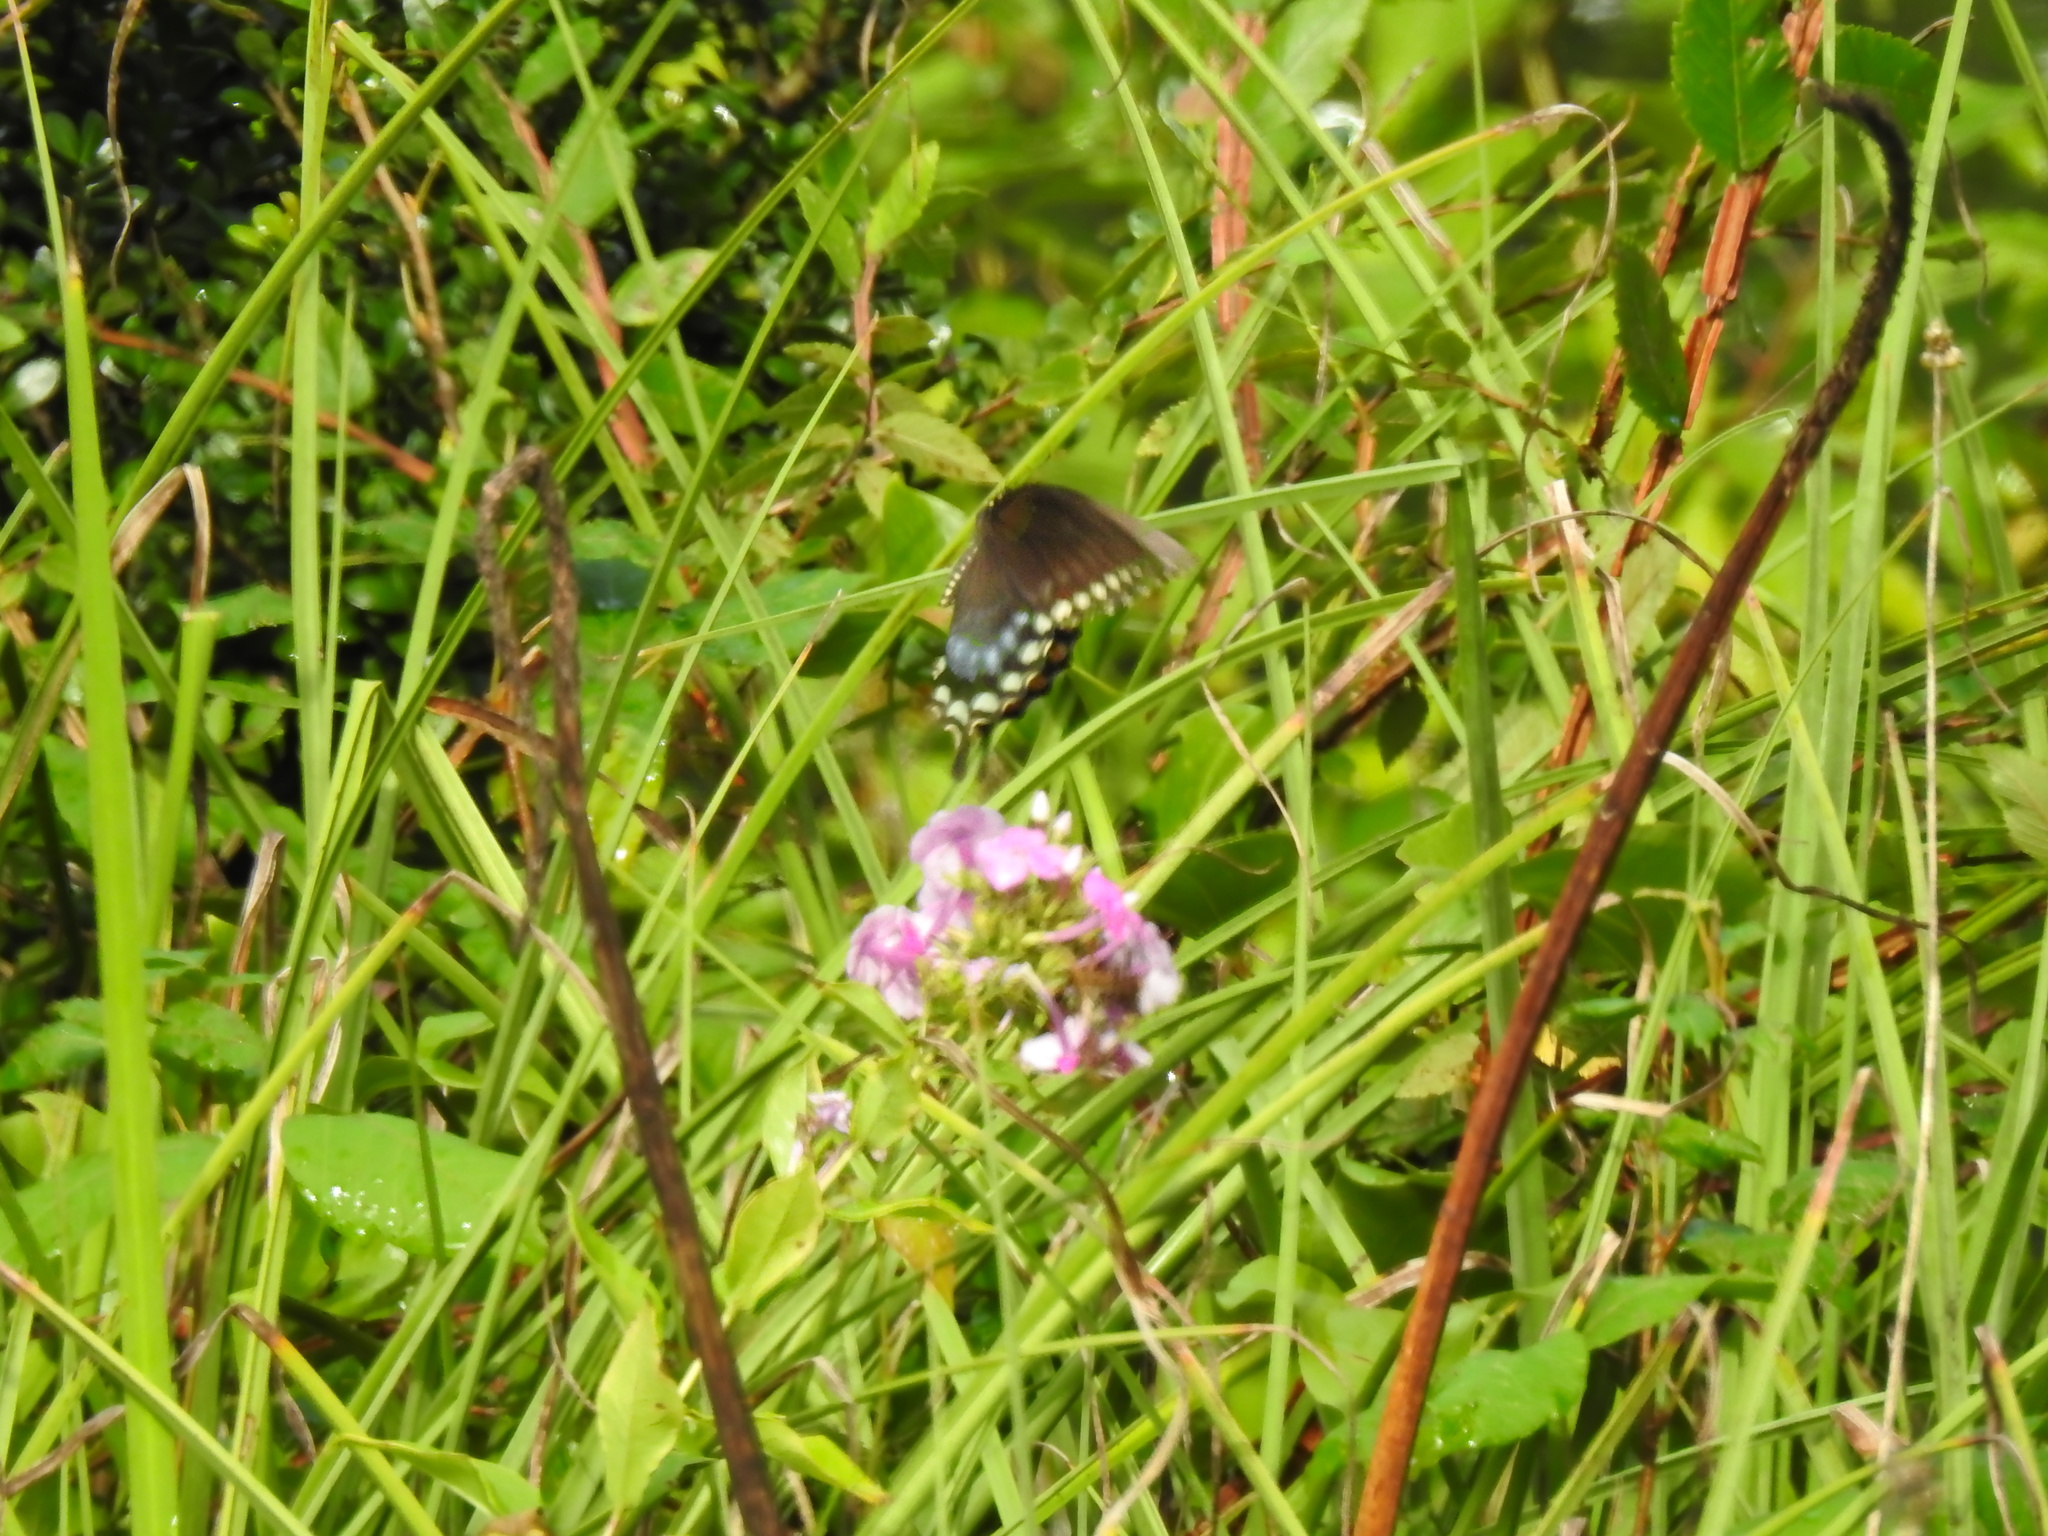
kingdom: Animalia
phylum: Arthropoda
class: Insecta
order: Lepidoptera
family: Papilionidae
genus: Papilio
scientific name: Papilio troilus
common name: Spicebush swallowtail
